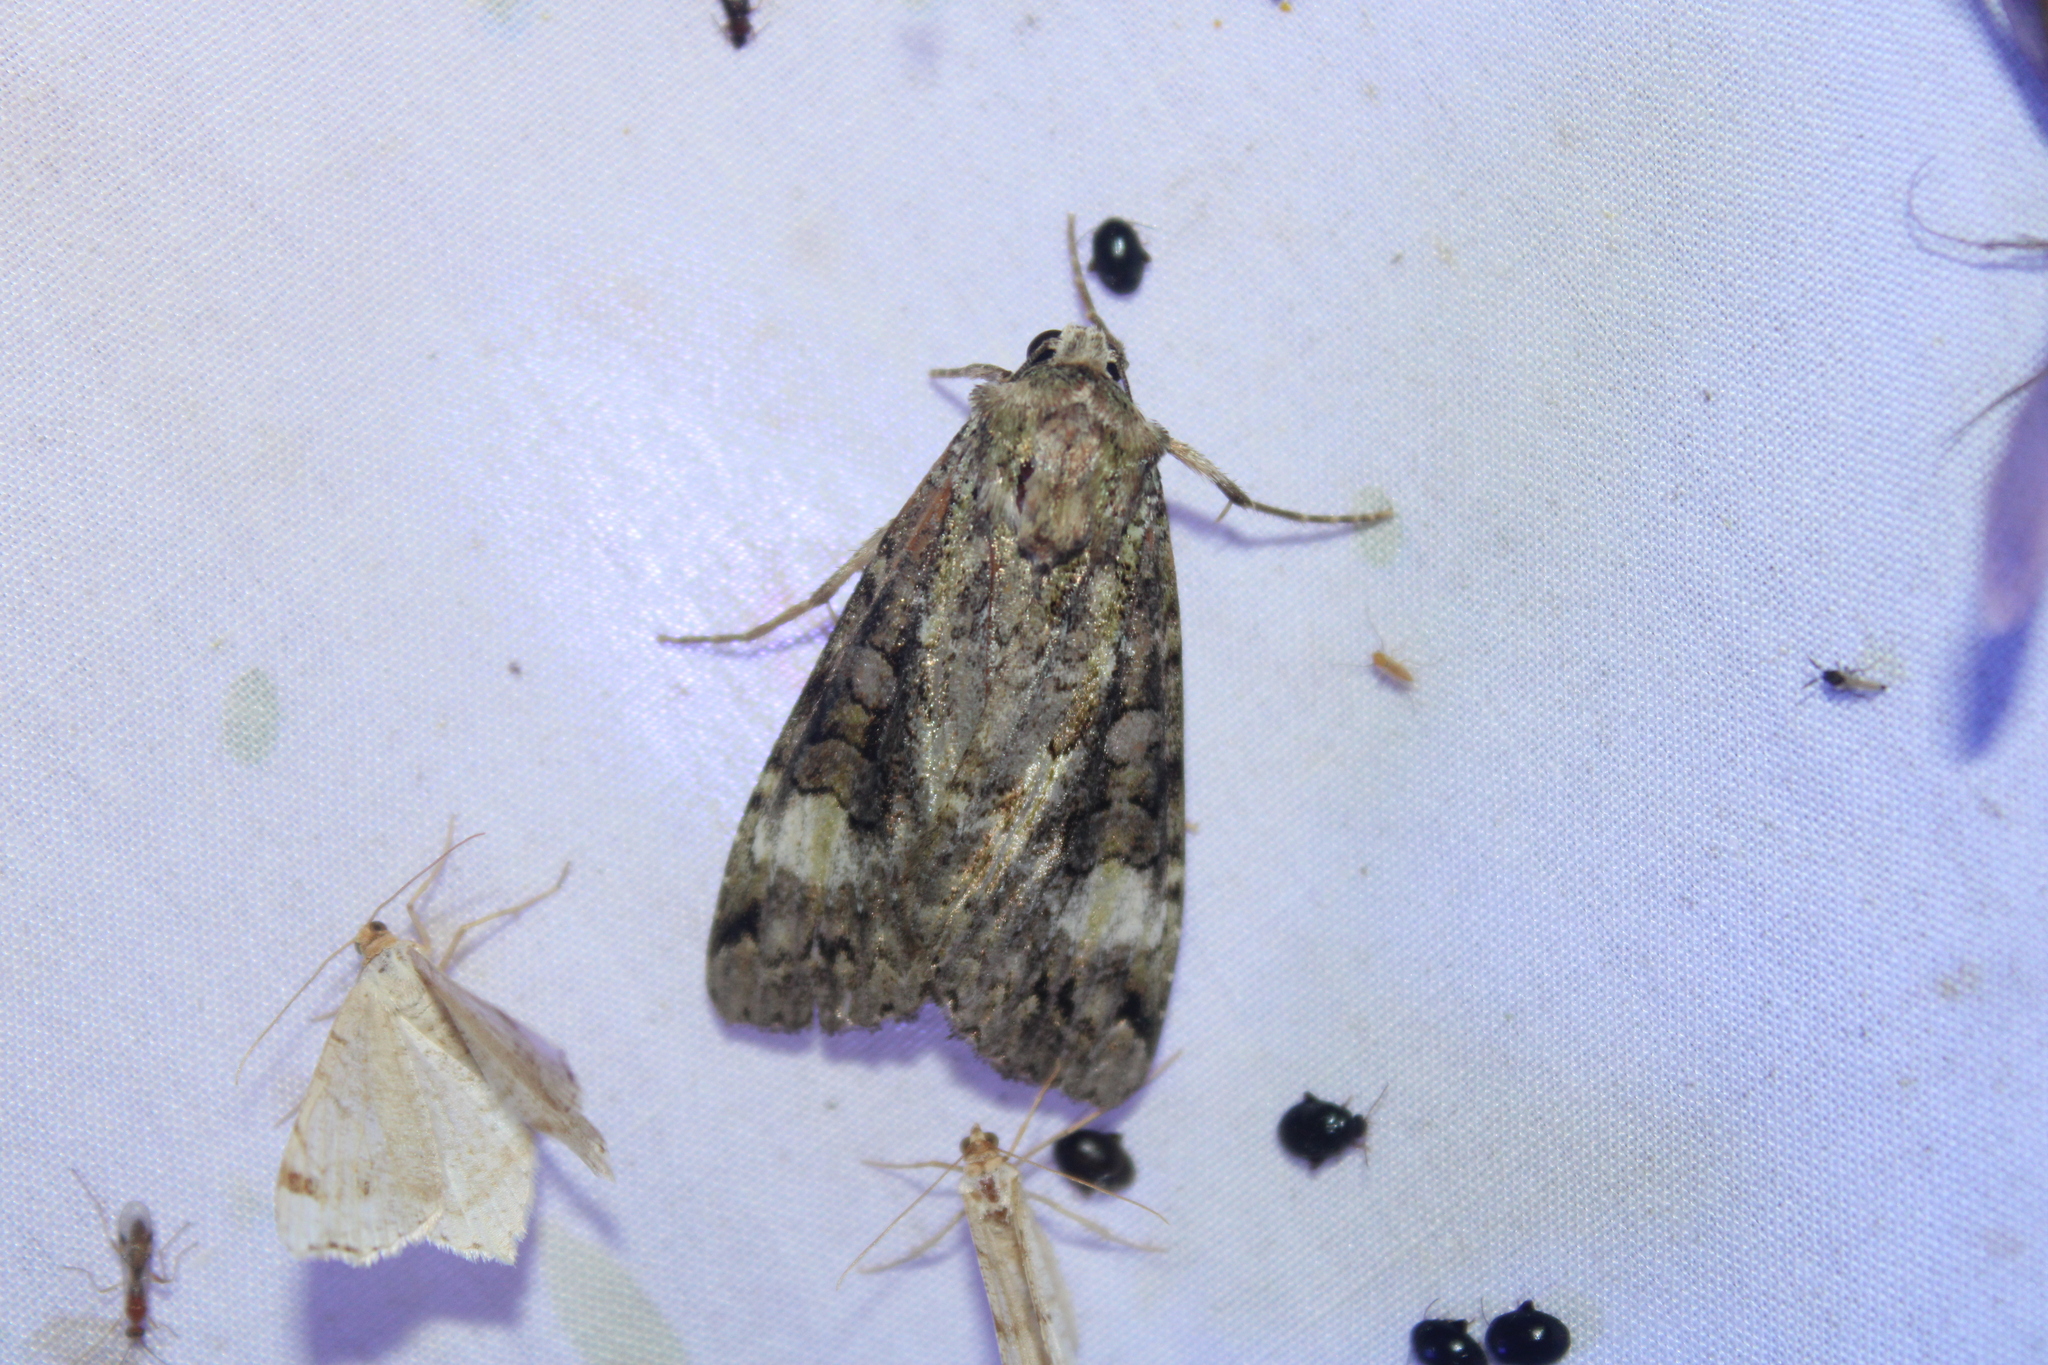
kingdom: Animalia
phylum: Arthropoda
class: Insecta
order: Lepidoptera
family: Noctuidae
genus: Anaplectoides
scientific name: Anaplectoides prasina
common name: Green arches
